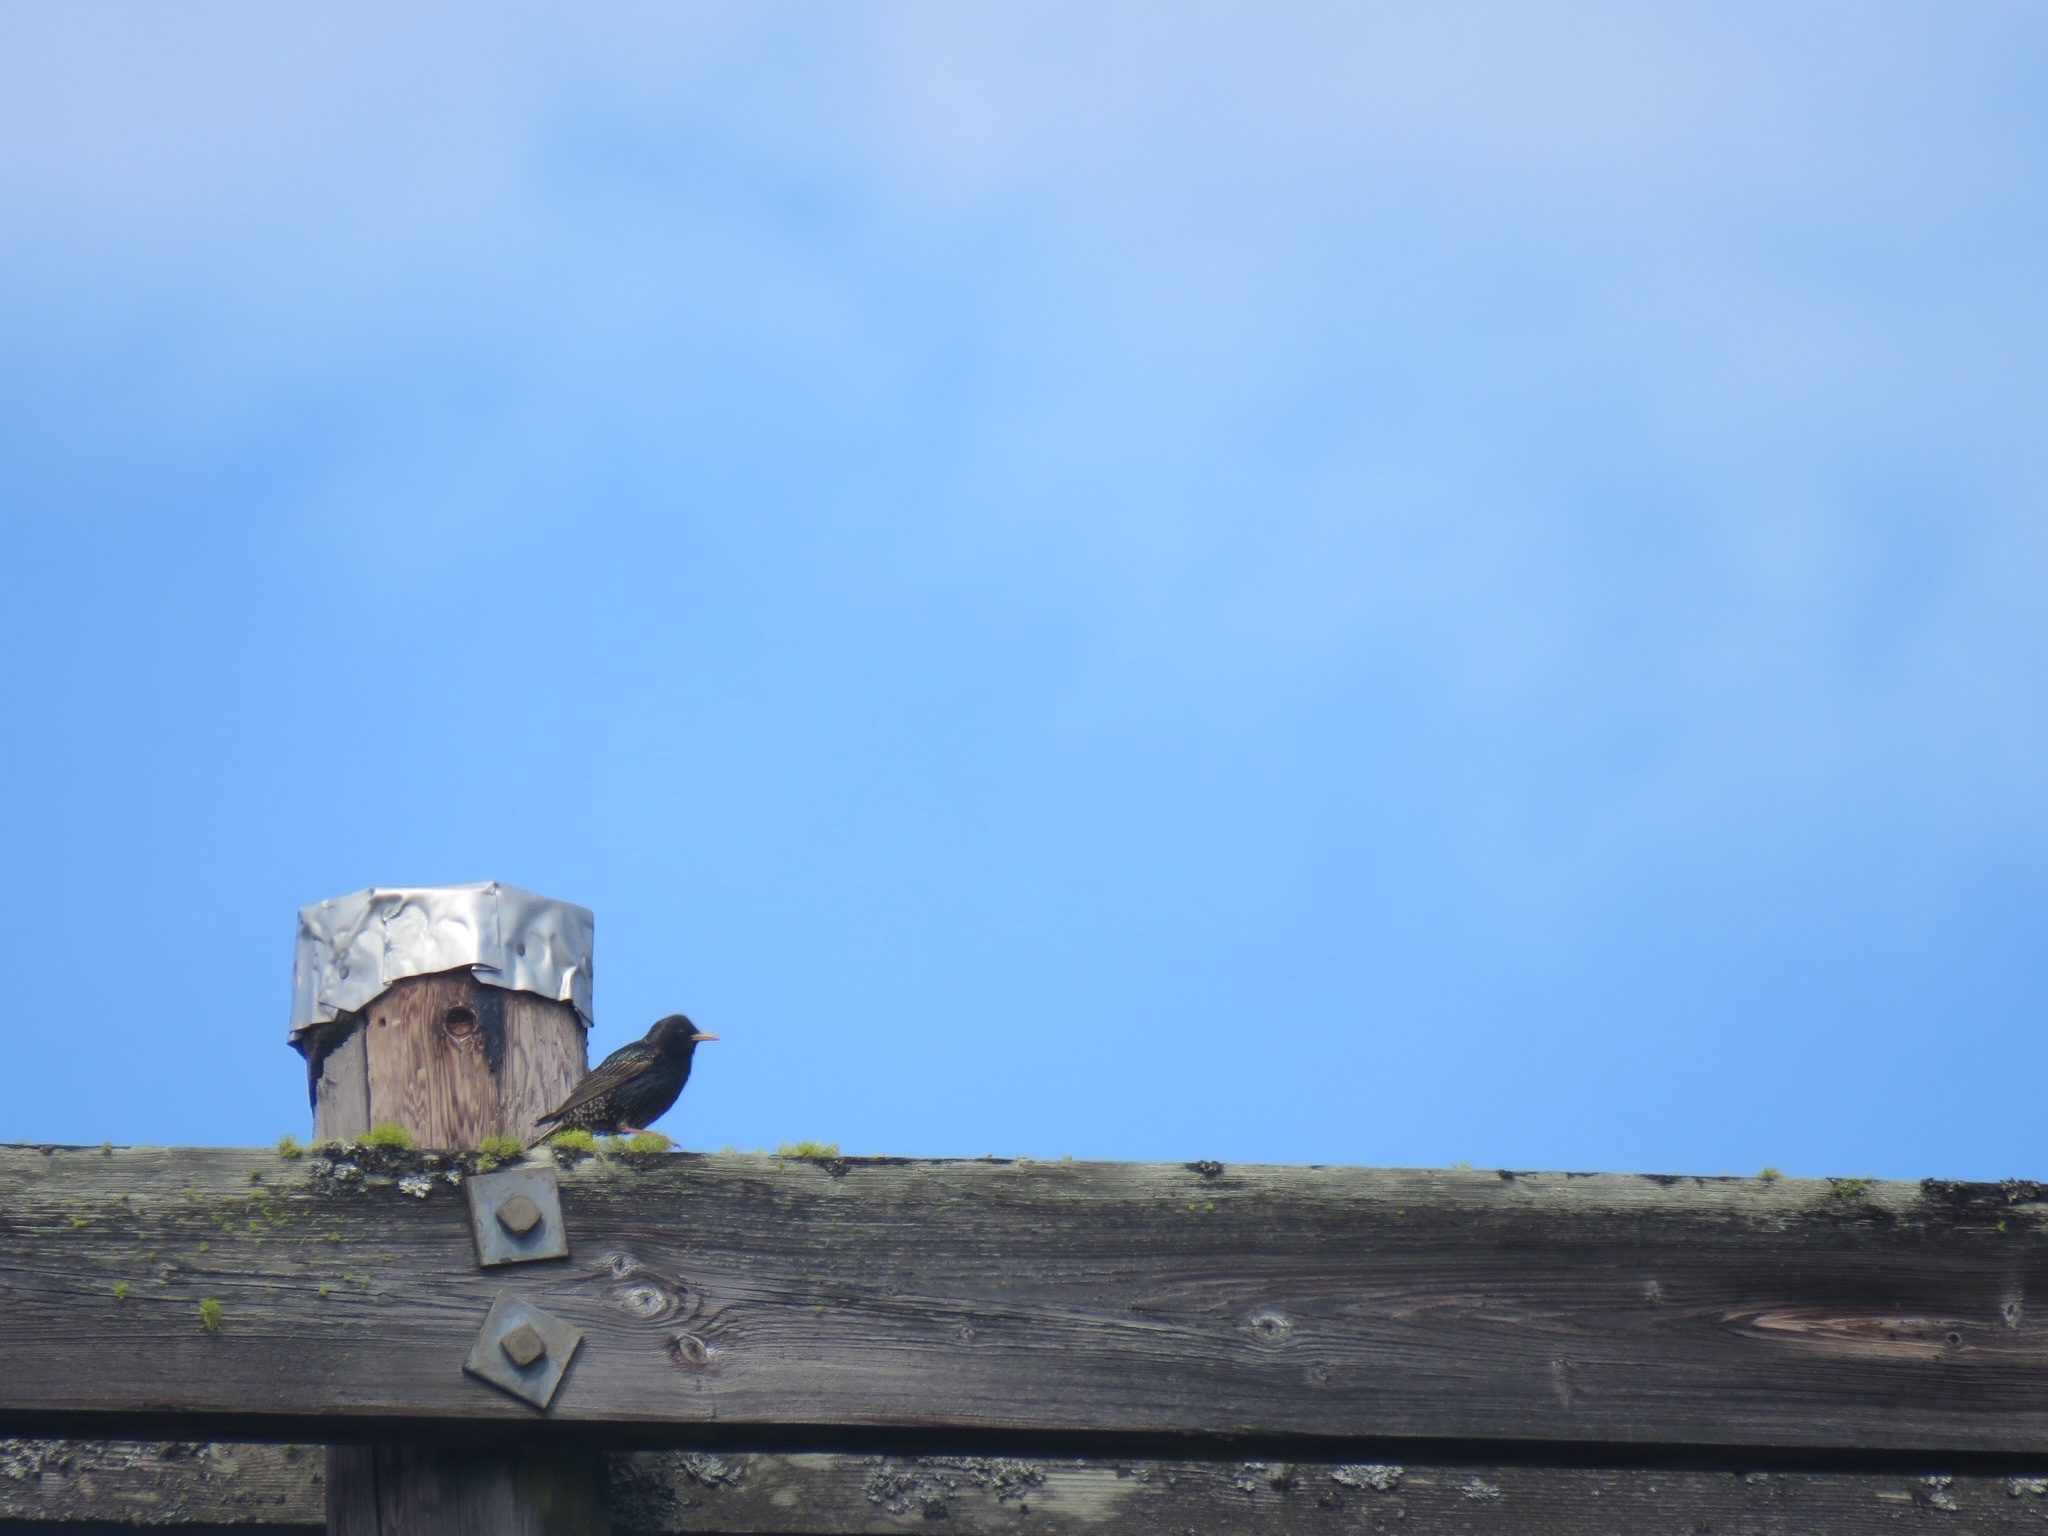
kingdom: Animalia
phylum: Chordata
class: Aves
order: Passeriformes
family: Sturnidae
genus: Sturnus
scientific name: Sturnus vulgaris
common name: Common starling
